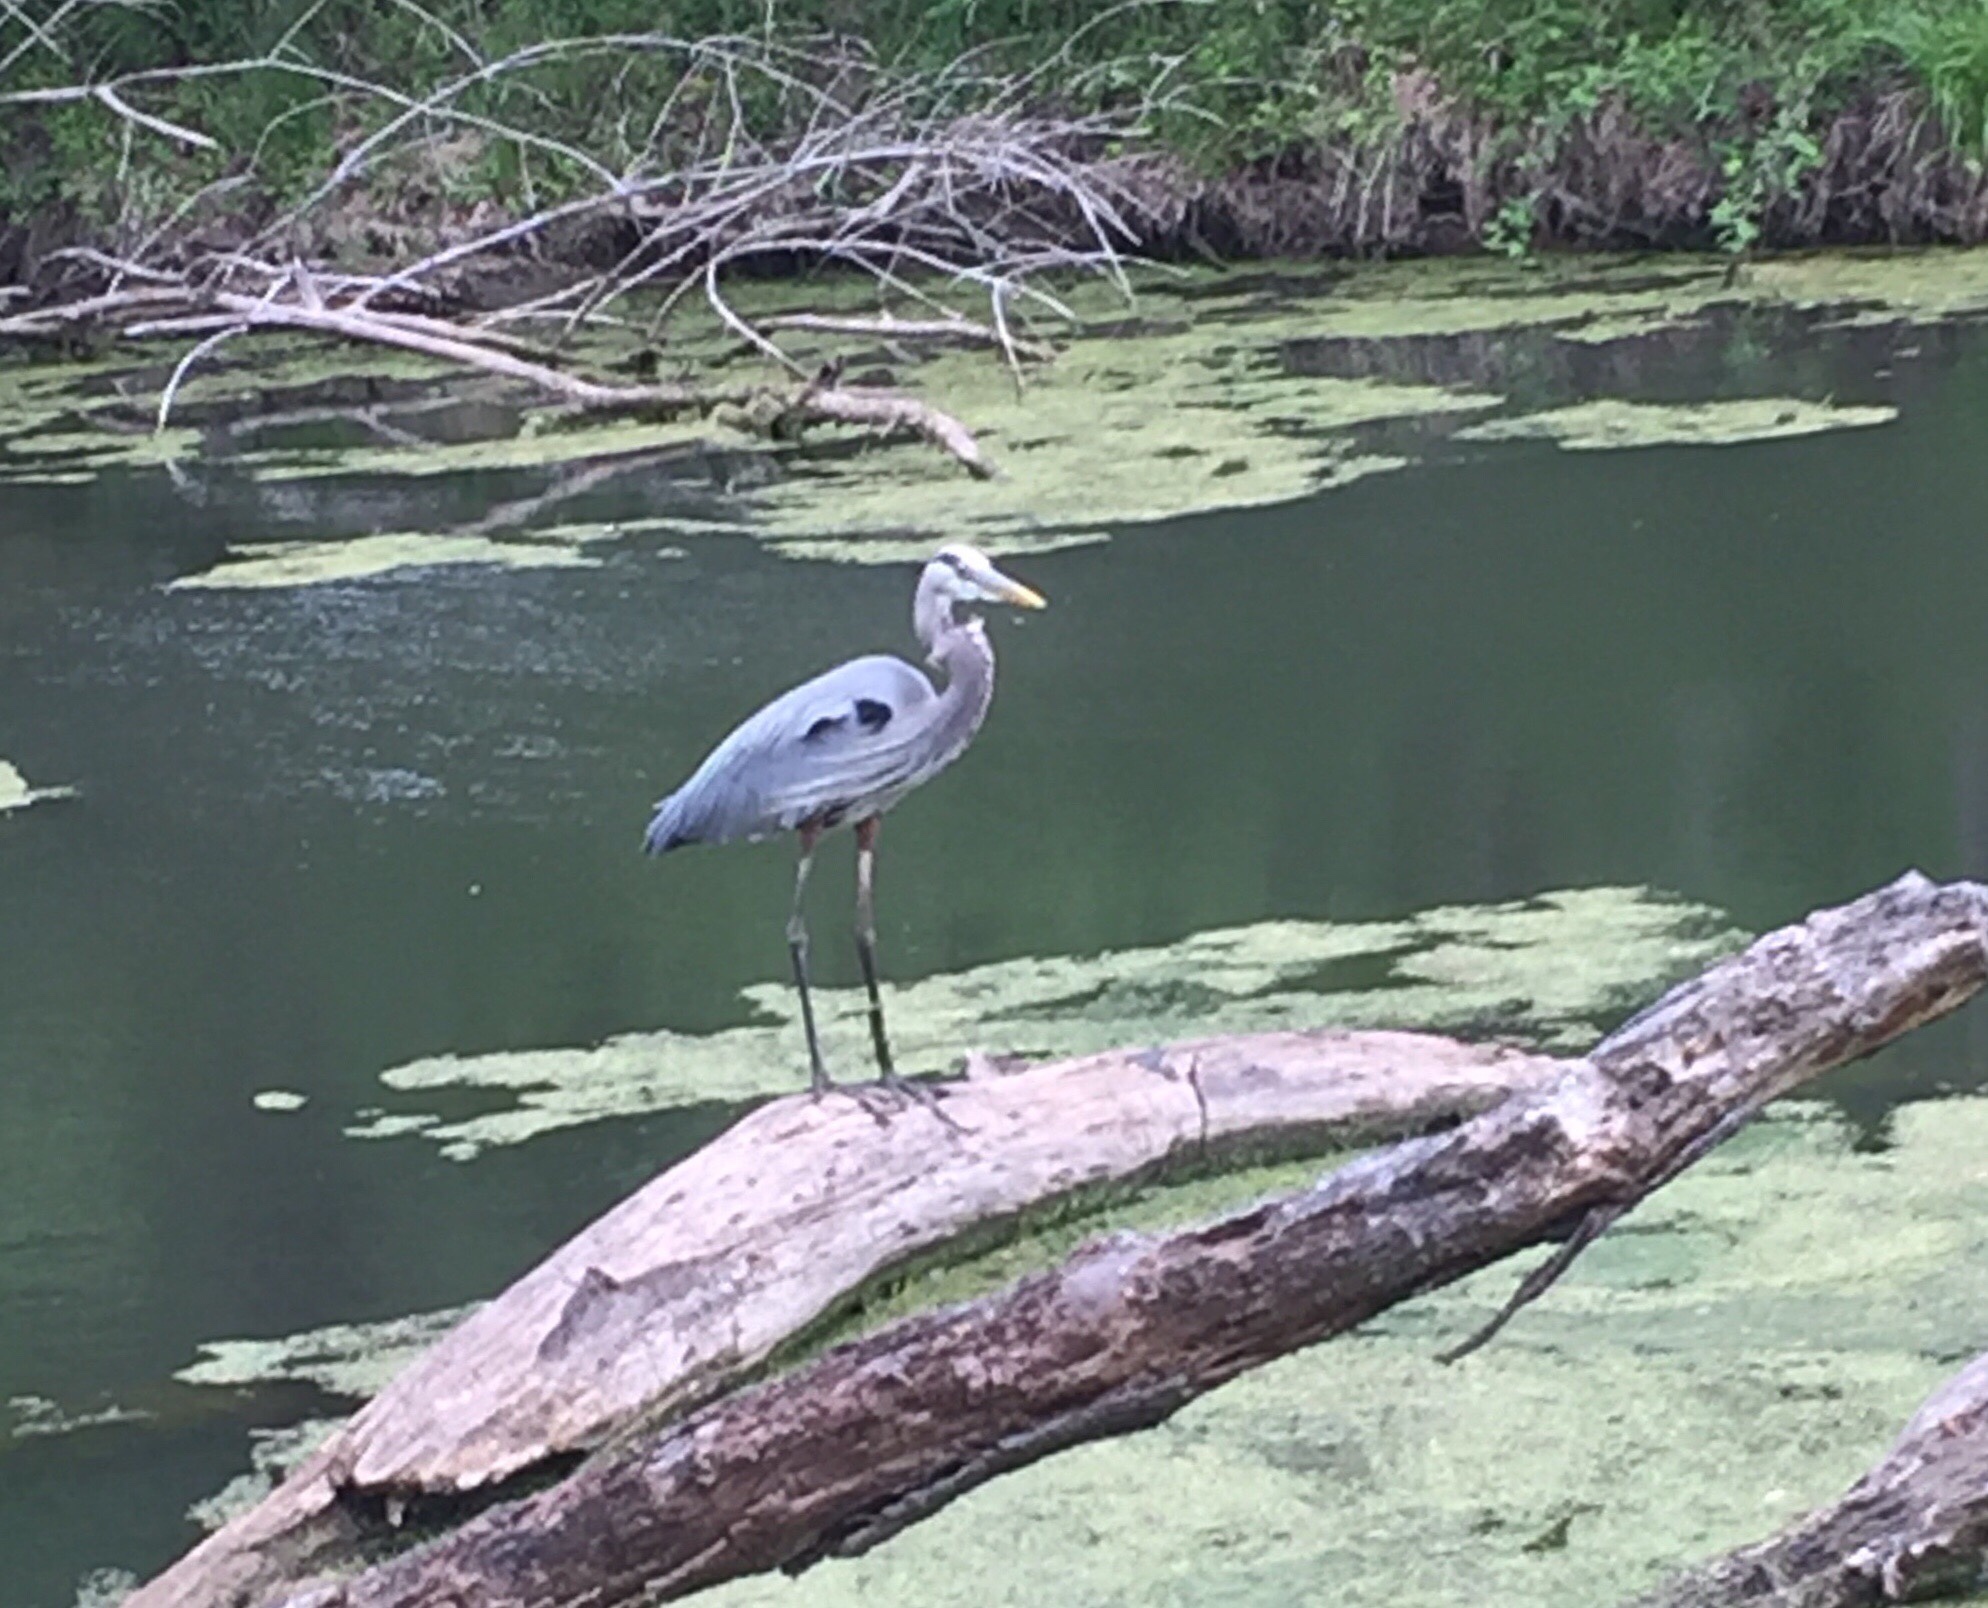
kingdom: Animalia
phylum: Chordata
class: Aves
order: Pelecaniformes
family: Ardeidae
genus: Ardea
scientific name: Ardea herodias
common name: Great blue heron
